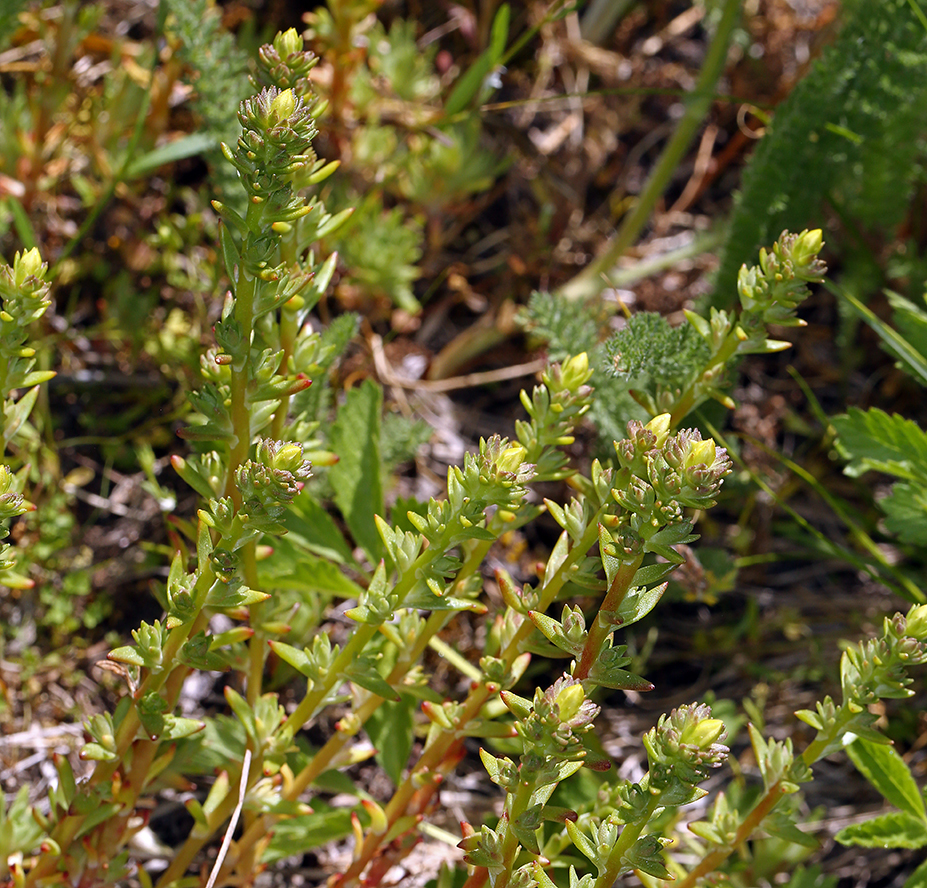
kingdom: Plantae
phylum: Tracheophyta
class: Magnoliopsida
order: Saxifragales
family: Crassulaceae
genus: Sedum
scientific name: Sedum stenopetalum
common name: Narrow-petaled stonecrop
